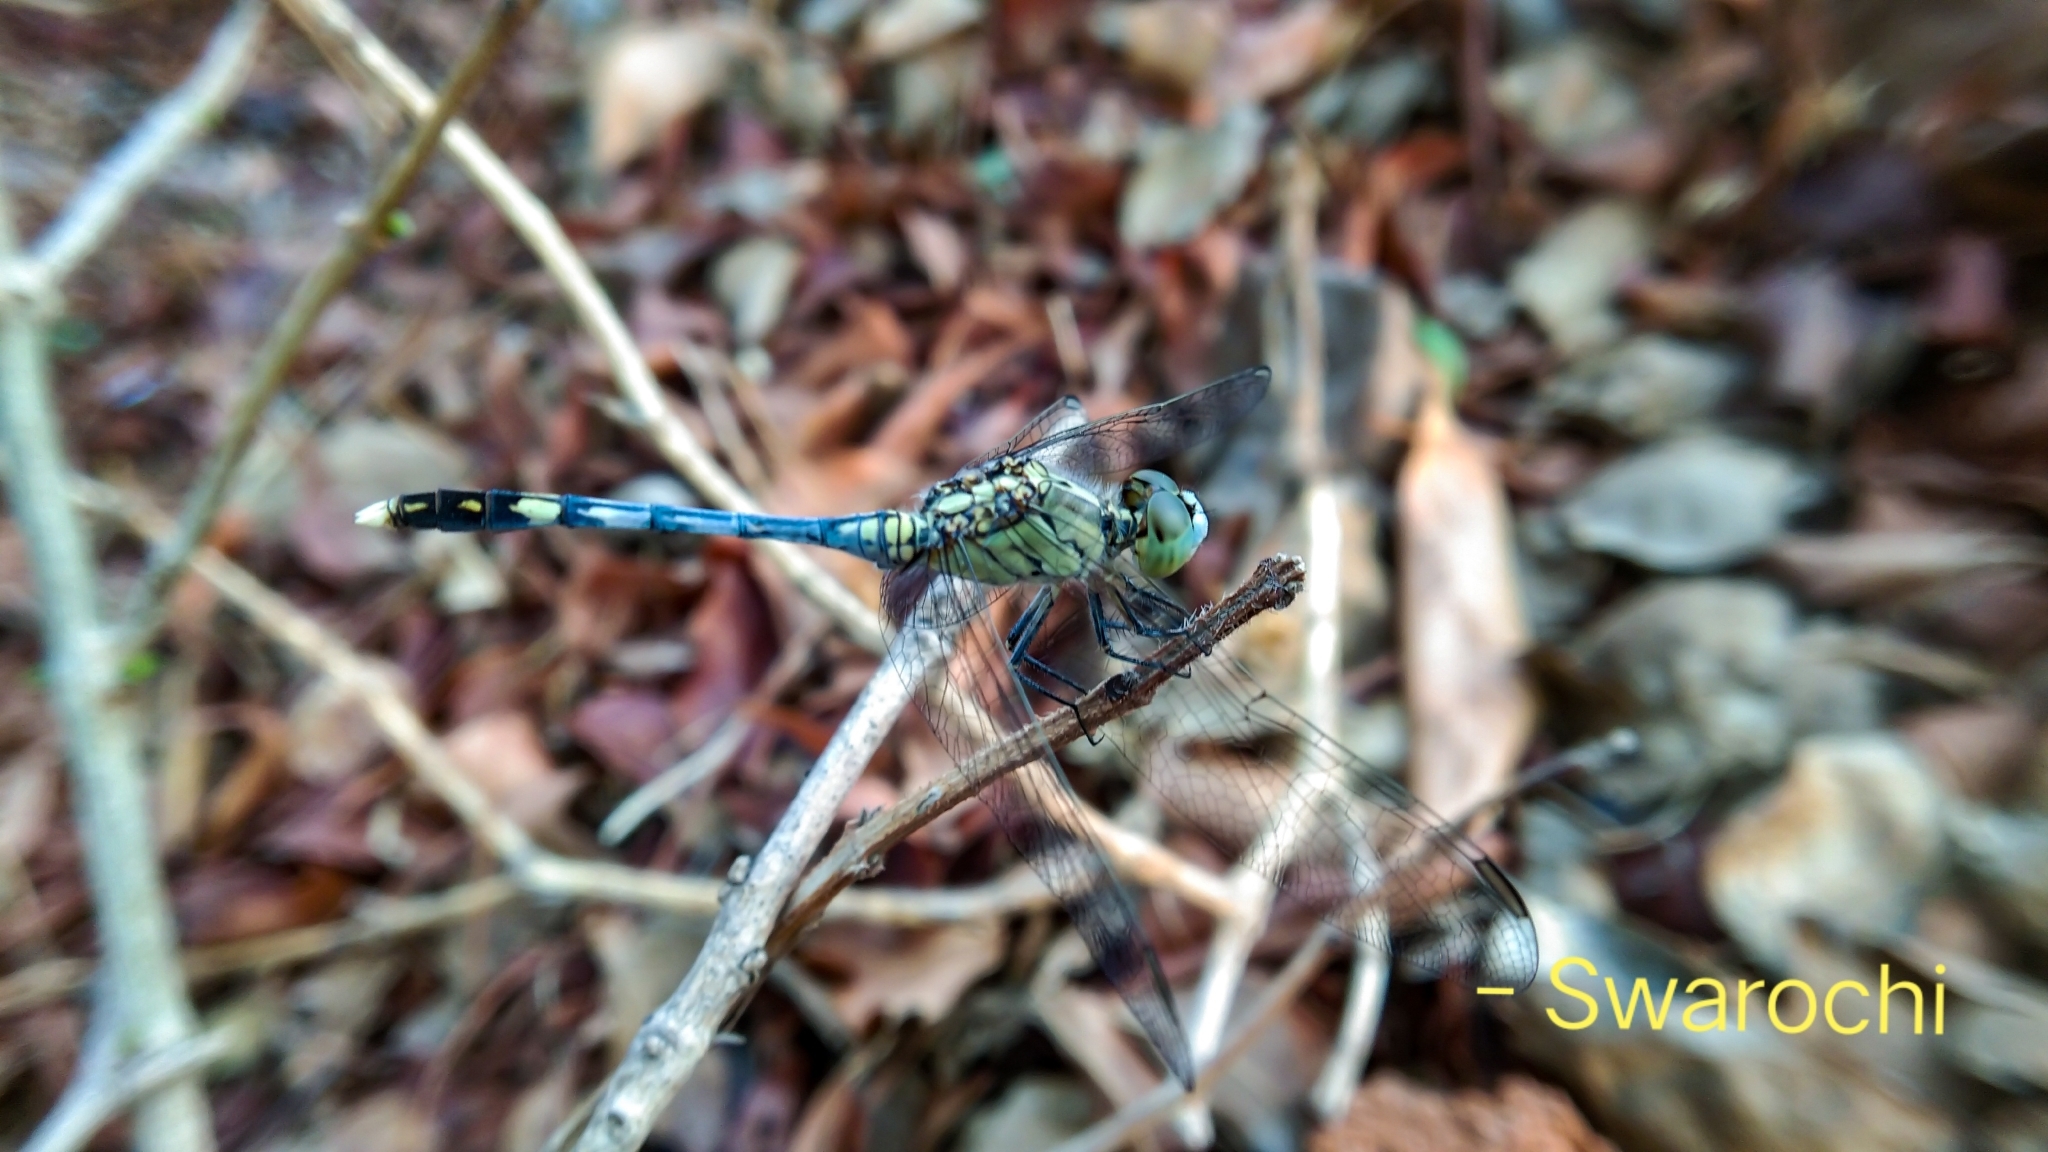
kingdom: Animalia
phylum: Arthropoda
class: Insecta
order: Odonata
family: Libellulidae
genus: Diplacodes
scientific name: Diplacodes trivialis
